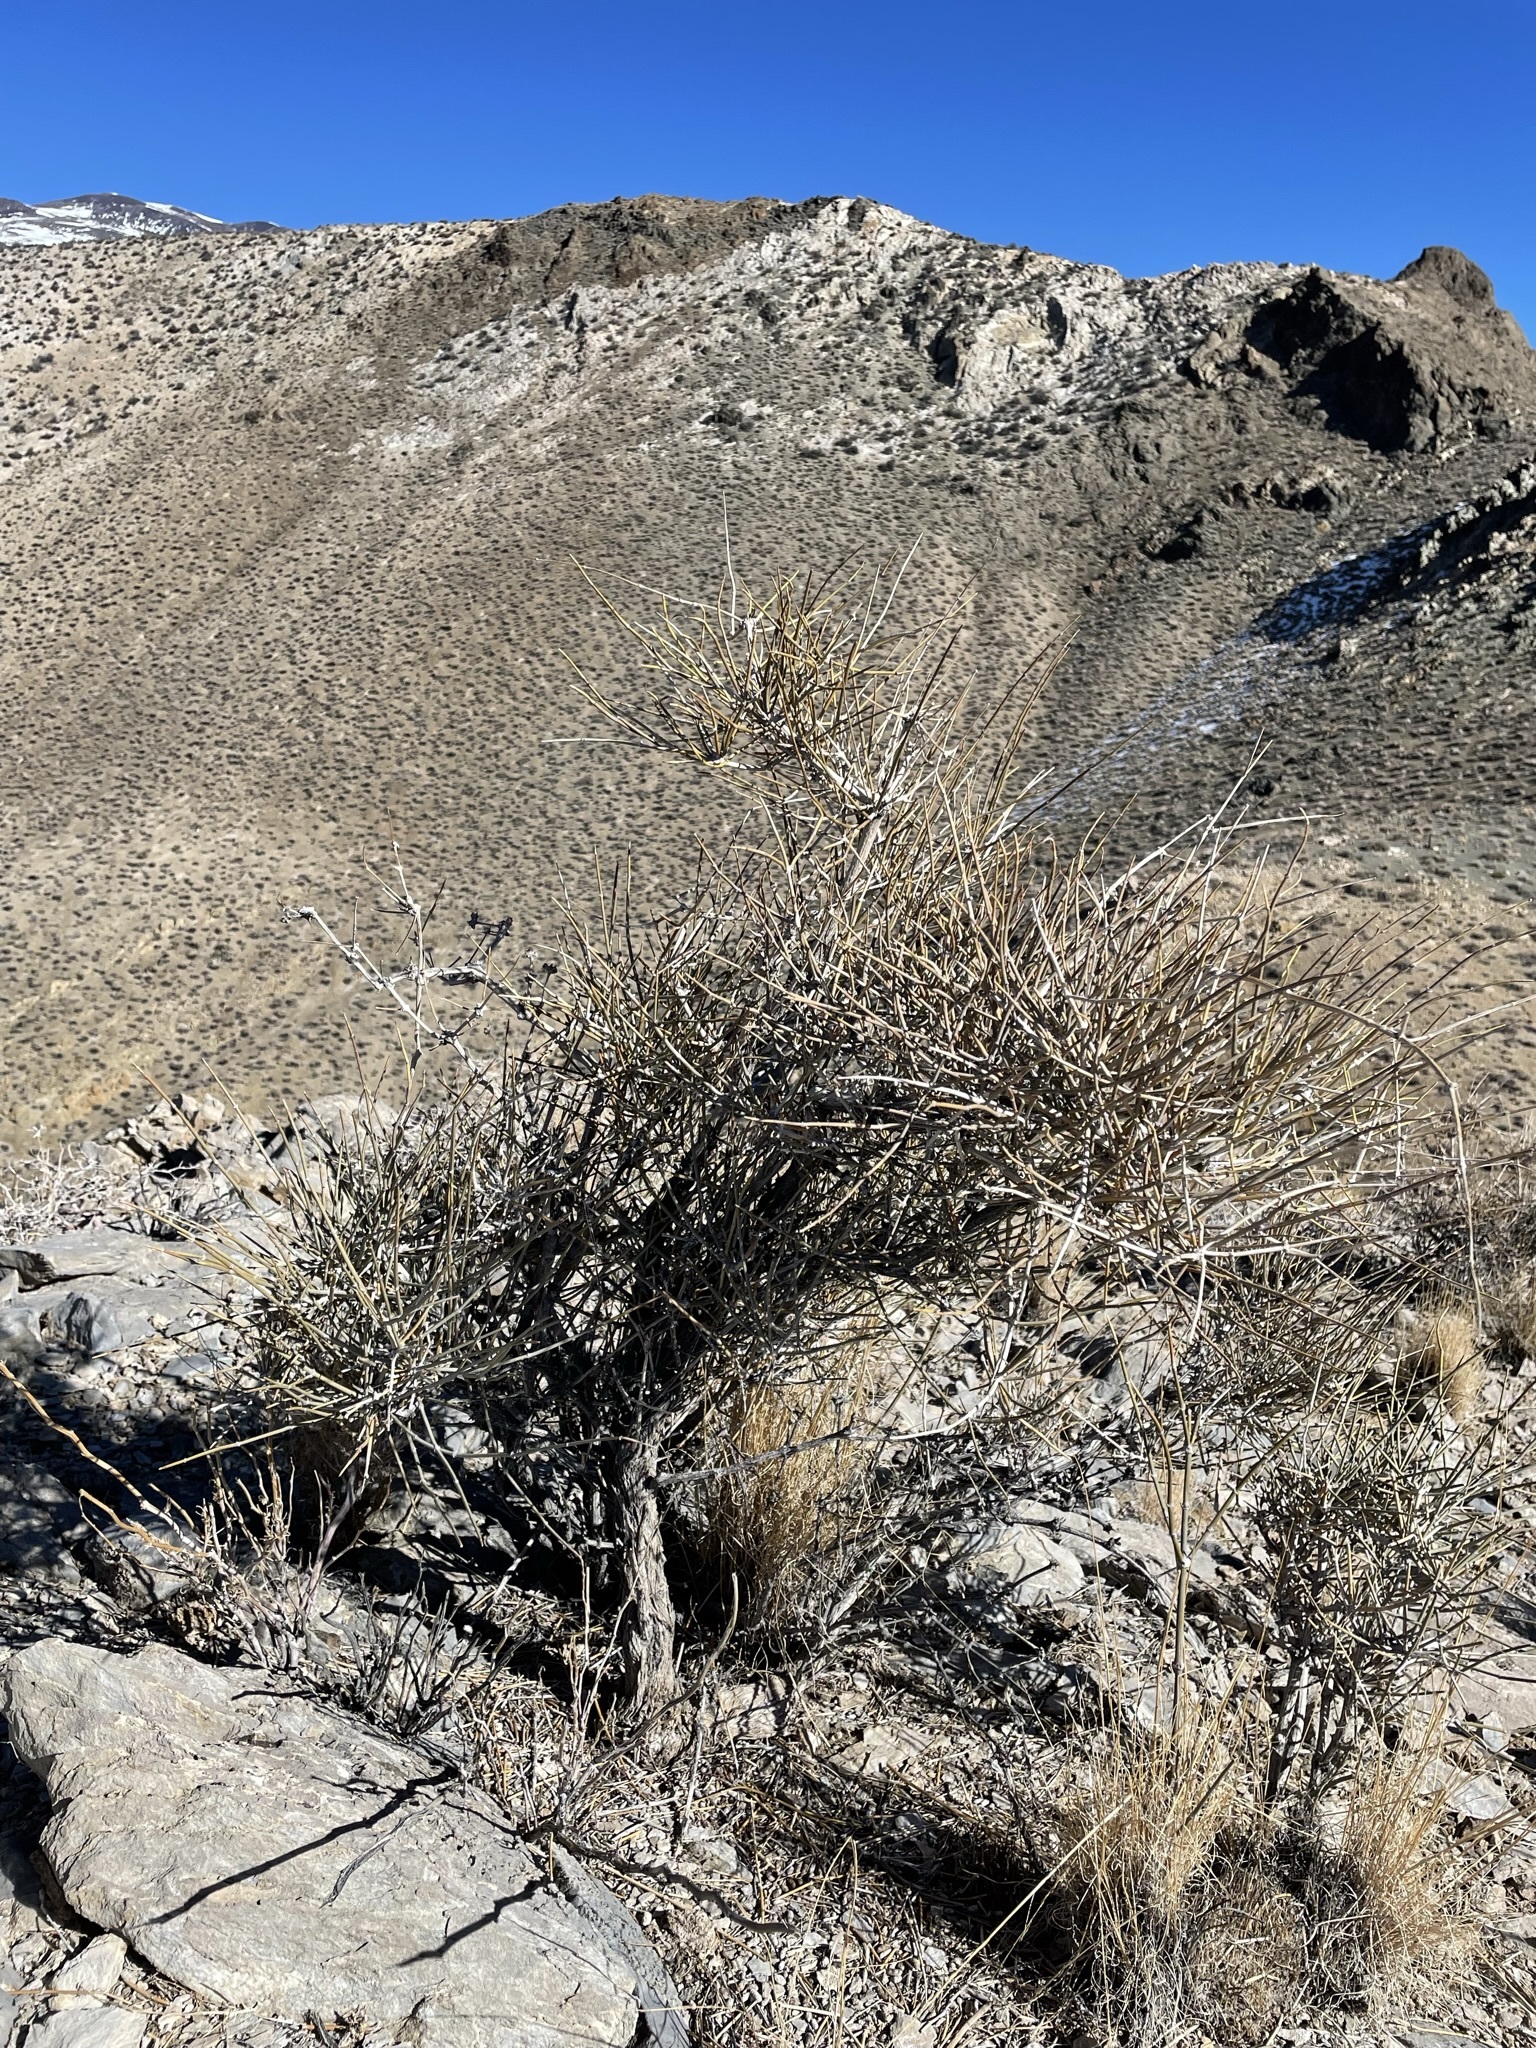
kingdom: Plantae
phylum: Tracheophyta
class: Gnetopsida
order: Ephedrales
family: Ephedraceae
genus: Ephedra
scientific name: Ephedra nevadensis
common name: Gray ephedra
